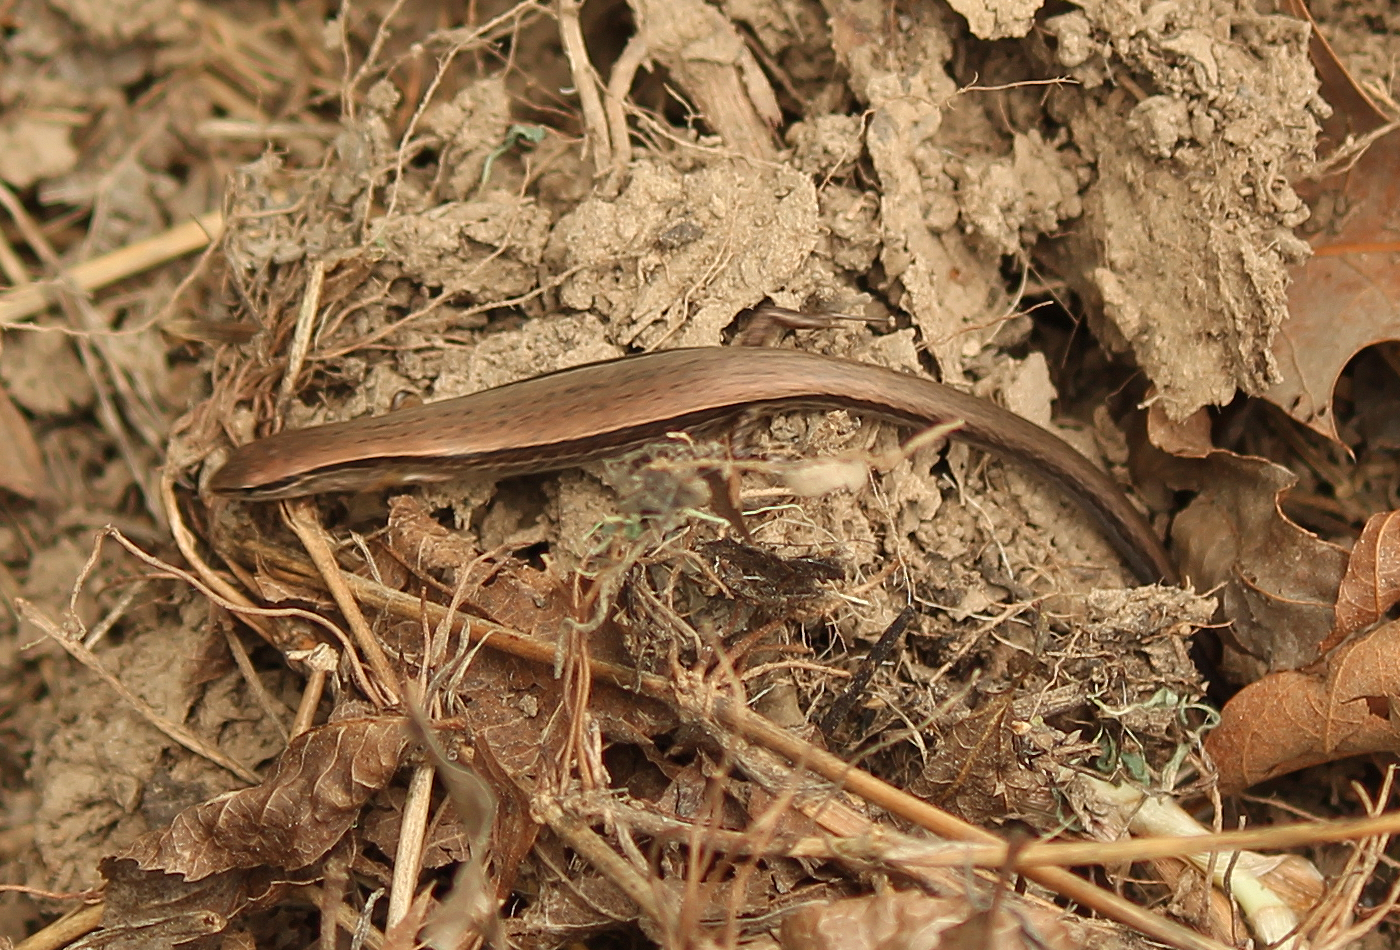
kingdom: Animalia
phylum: Chordata
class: Squamata
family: Scincidae
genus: Scincella
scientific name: Scincella lateralis
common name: Ground skink
